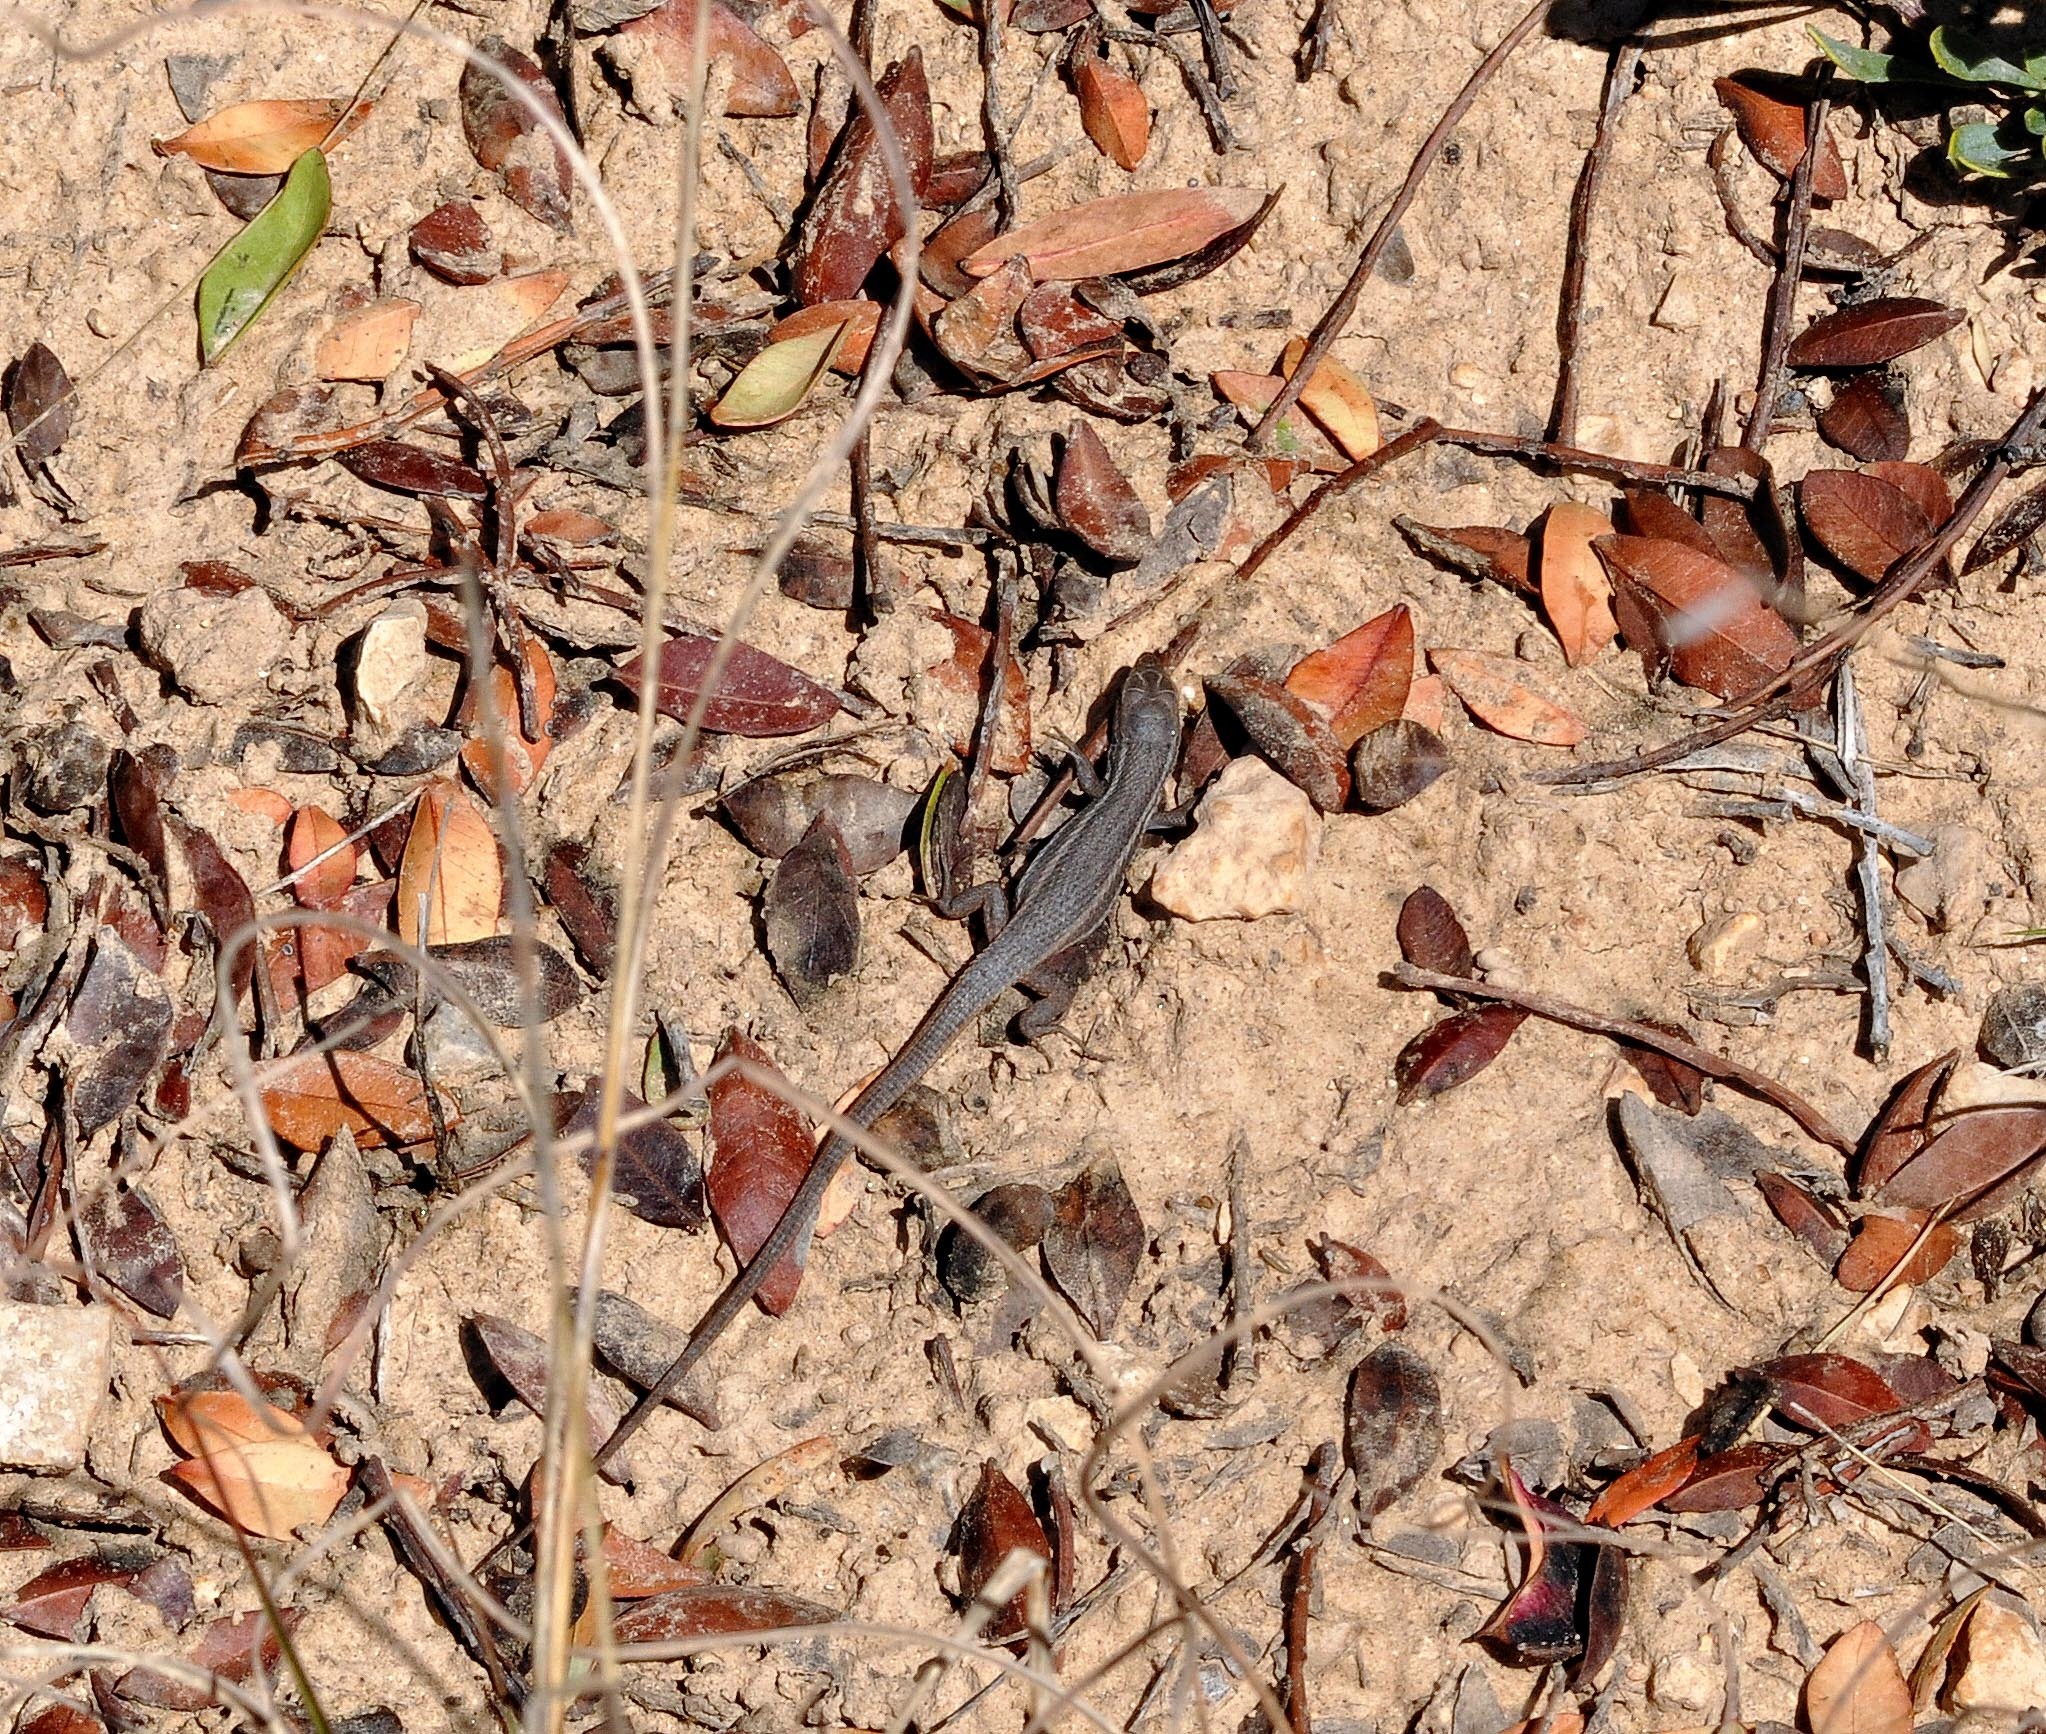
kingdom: Animalia
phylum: Chordata
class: Squamata
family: Lacertidae
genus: Psammodromus
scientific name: Psammodromus algirus
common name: Algerian psammodromus
